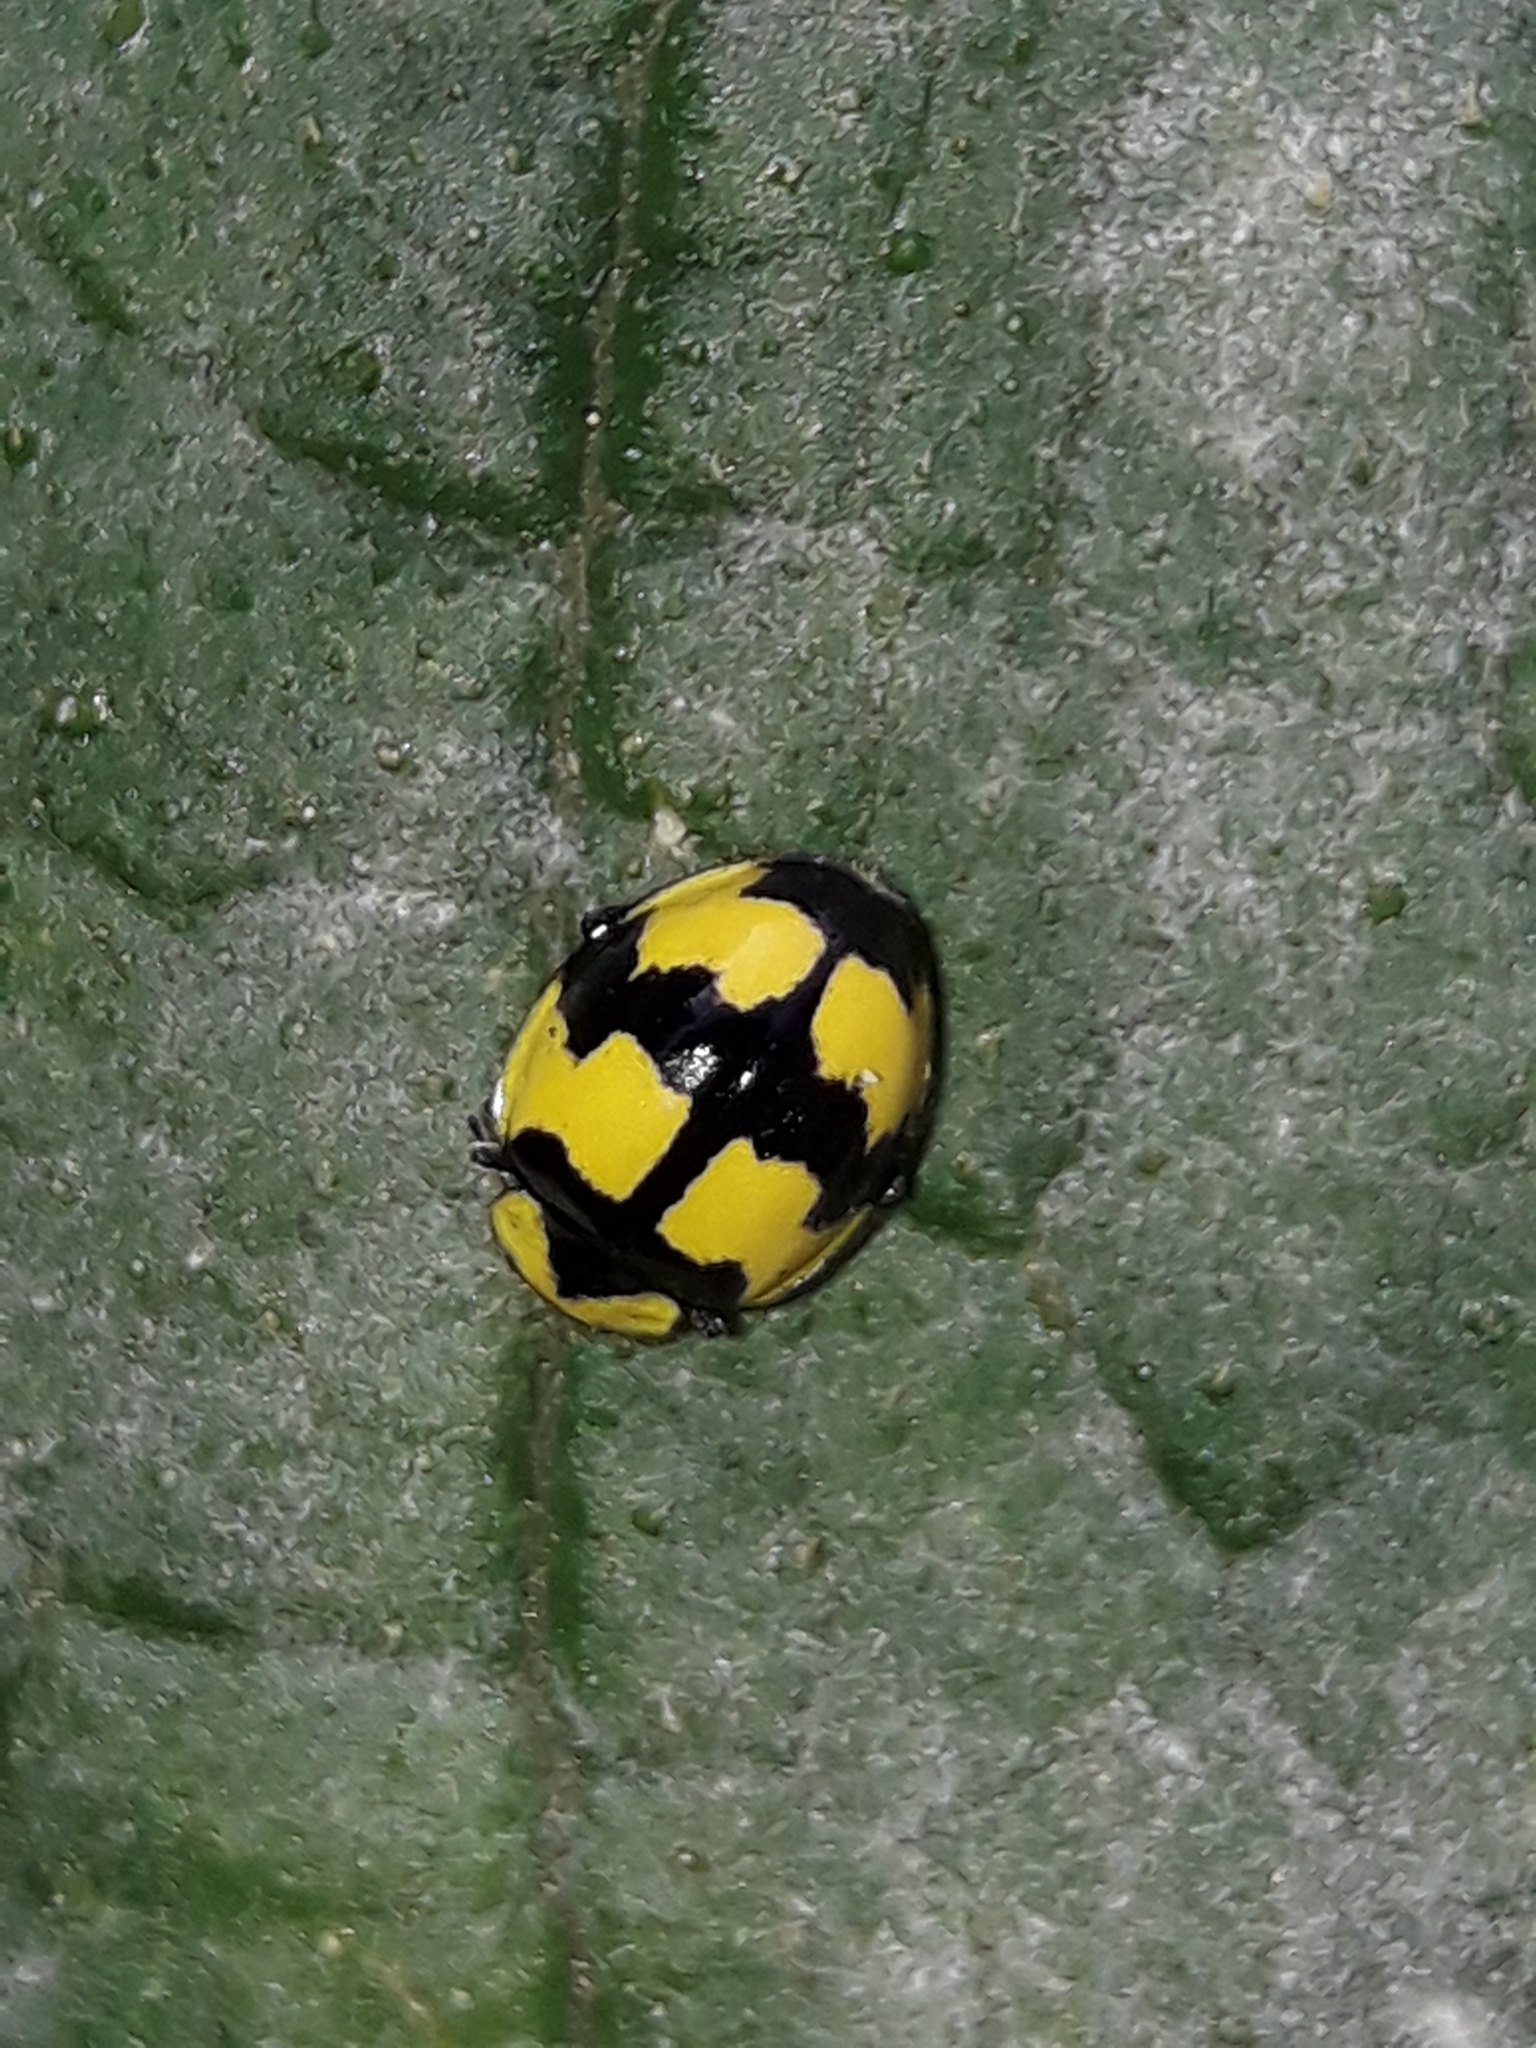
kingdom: Animalia
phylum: Arthropoda
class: Insecta
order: Coleoptera
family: Coccinellidae
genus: Illeis
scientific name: Illeis galbula
